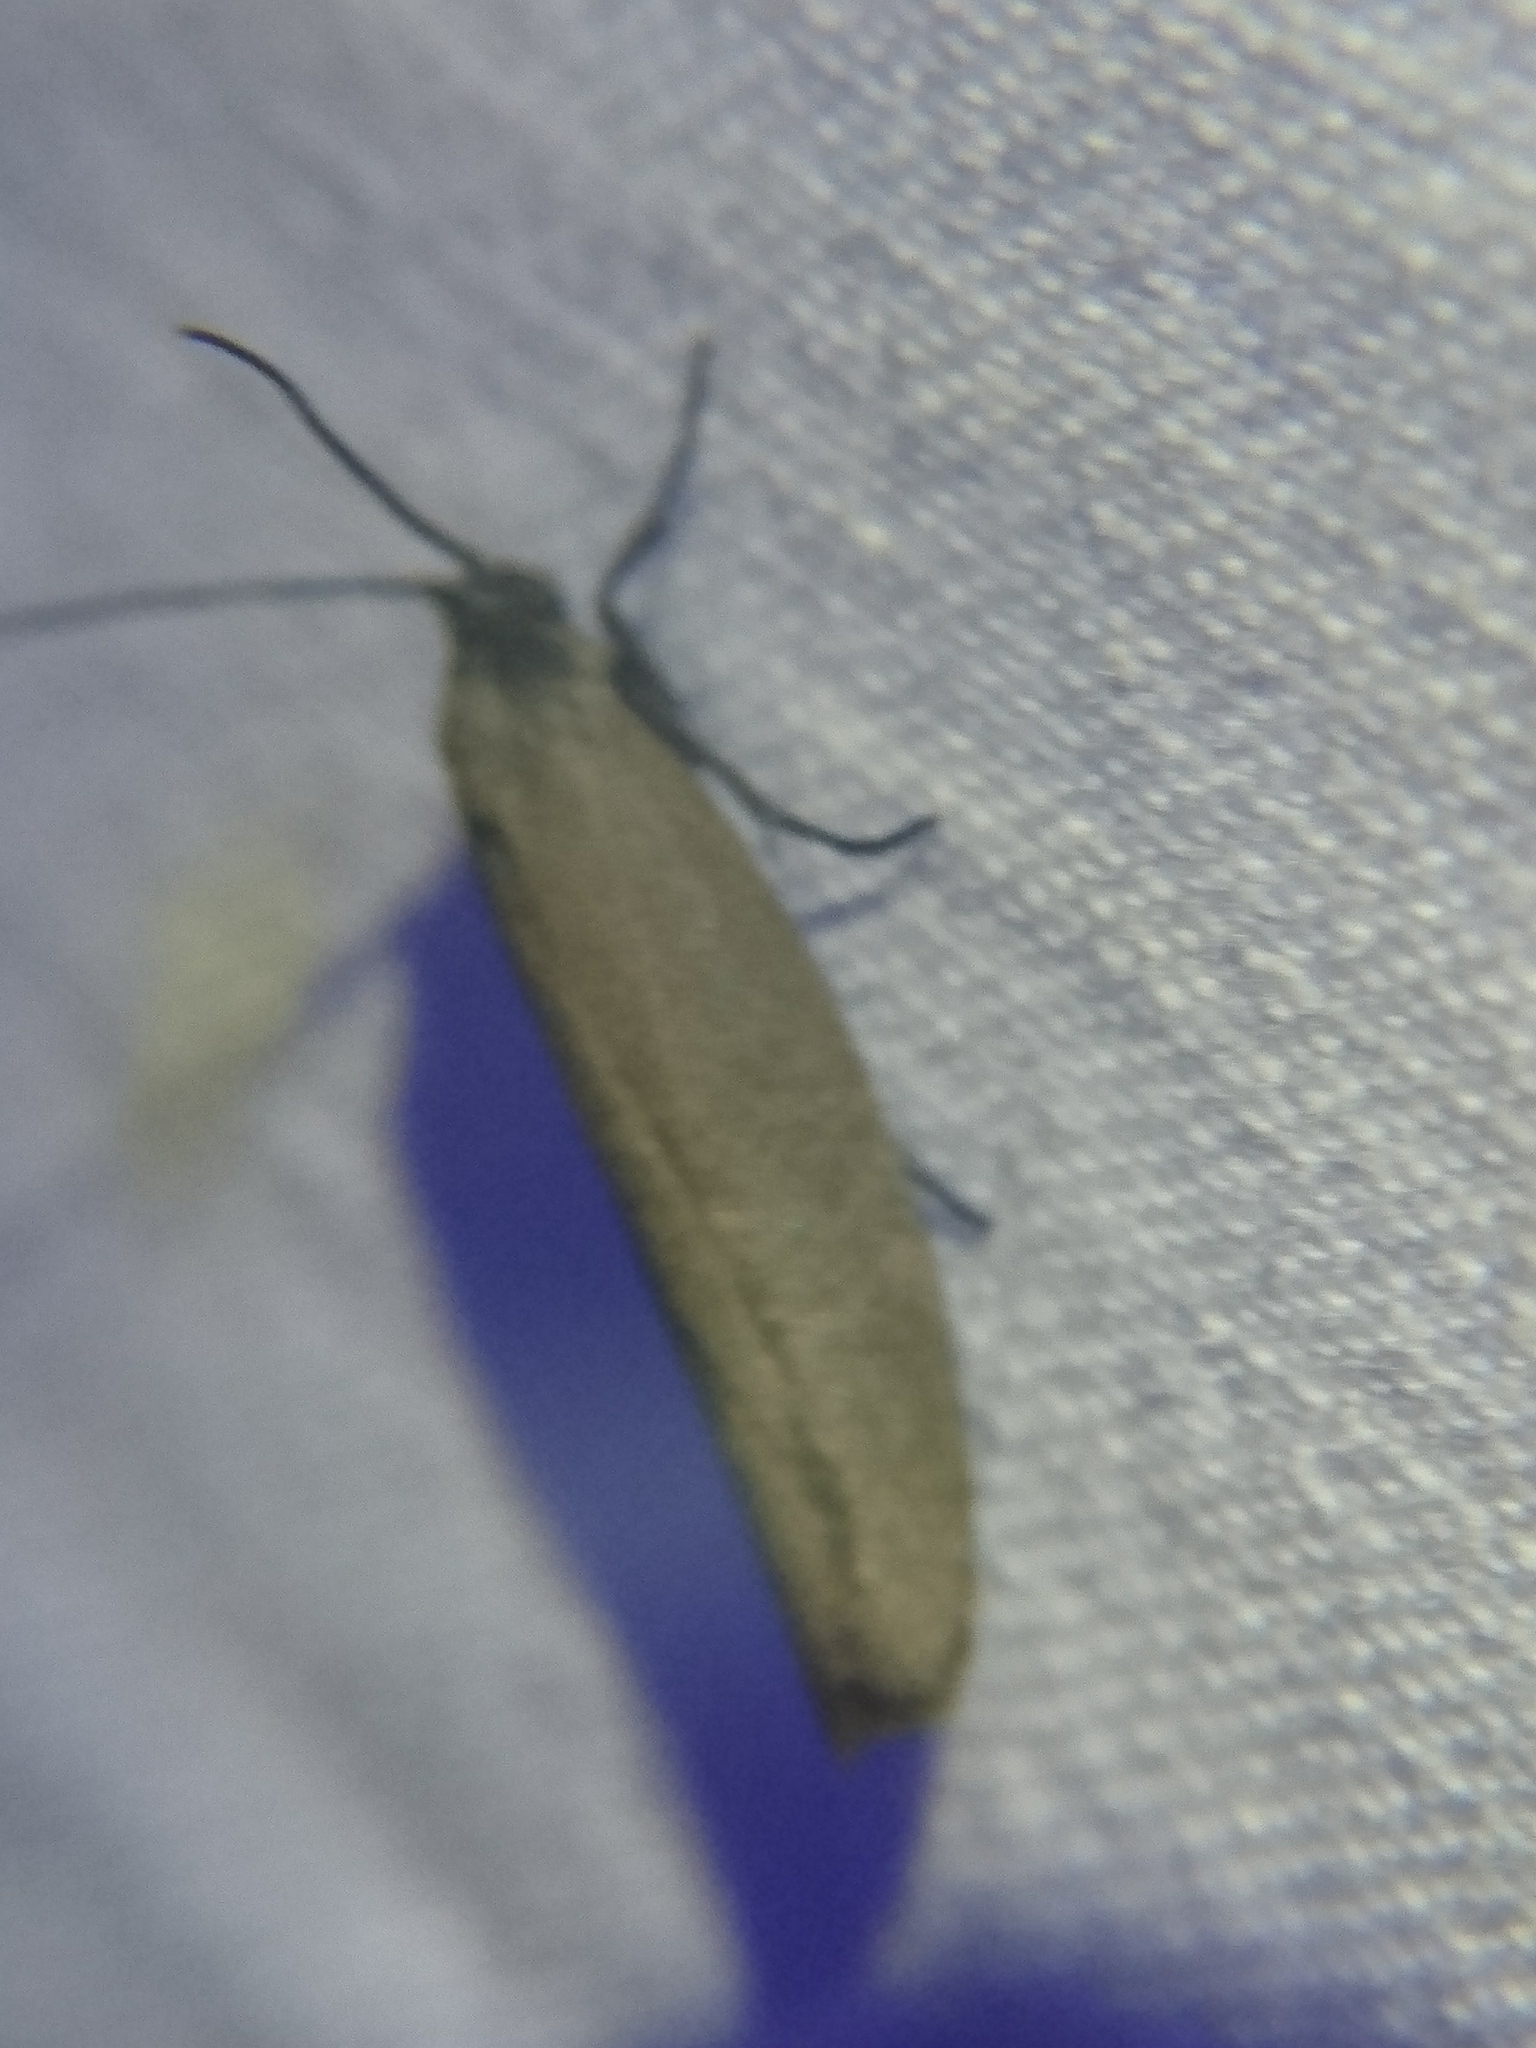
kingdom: Animalia
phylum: Arthropoda
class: Insecta
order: Lepidoptera
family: Urodidae
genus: Urodus
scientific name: Urodus parvula
